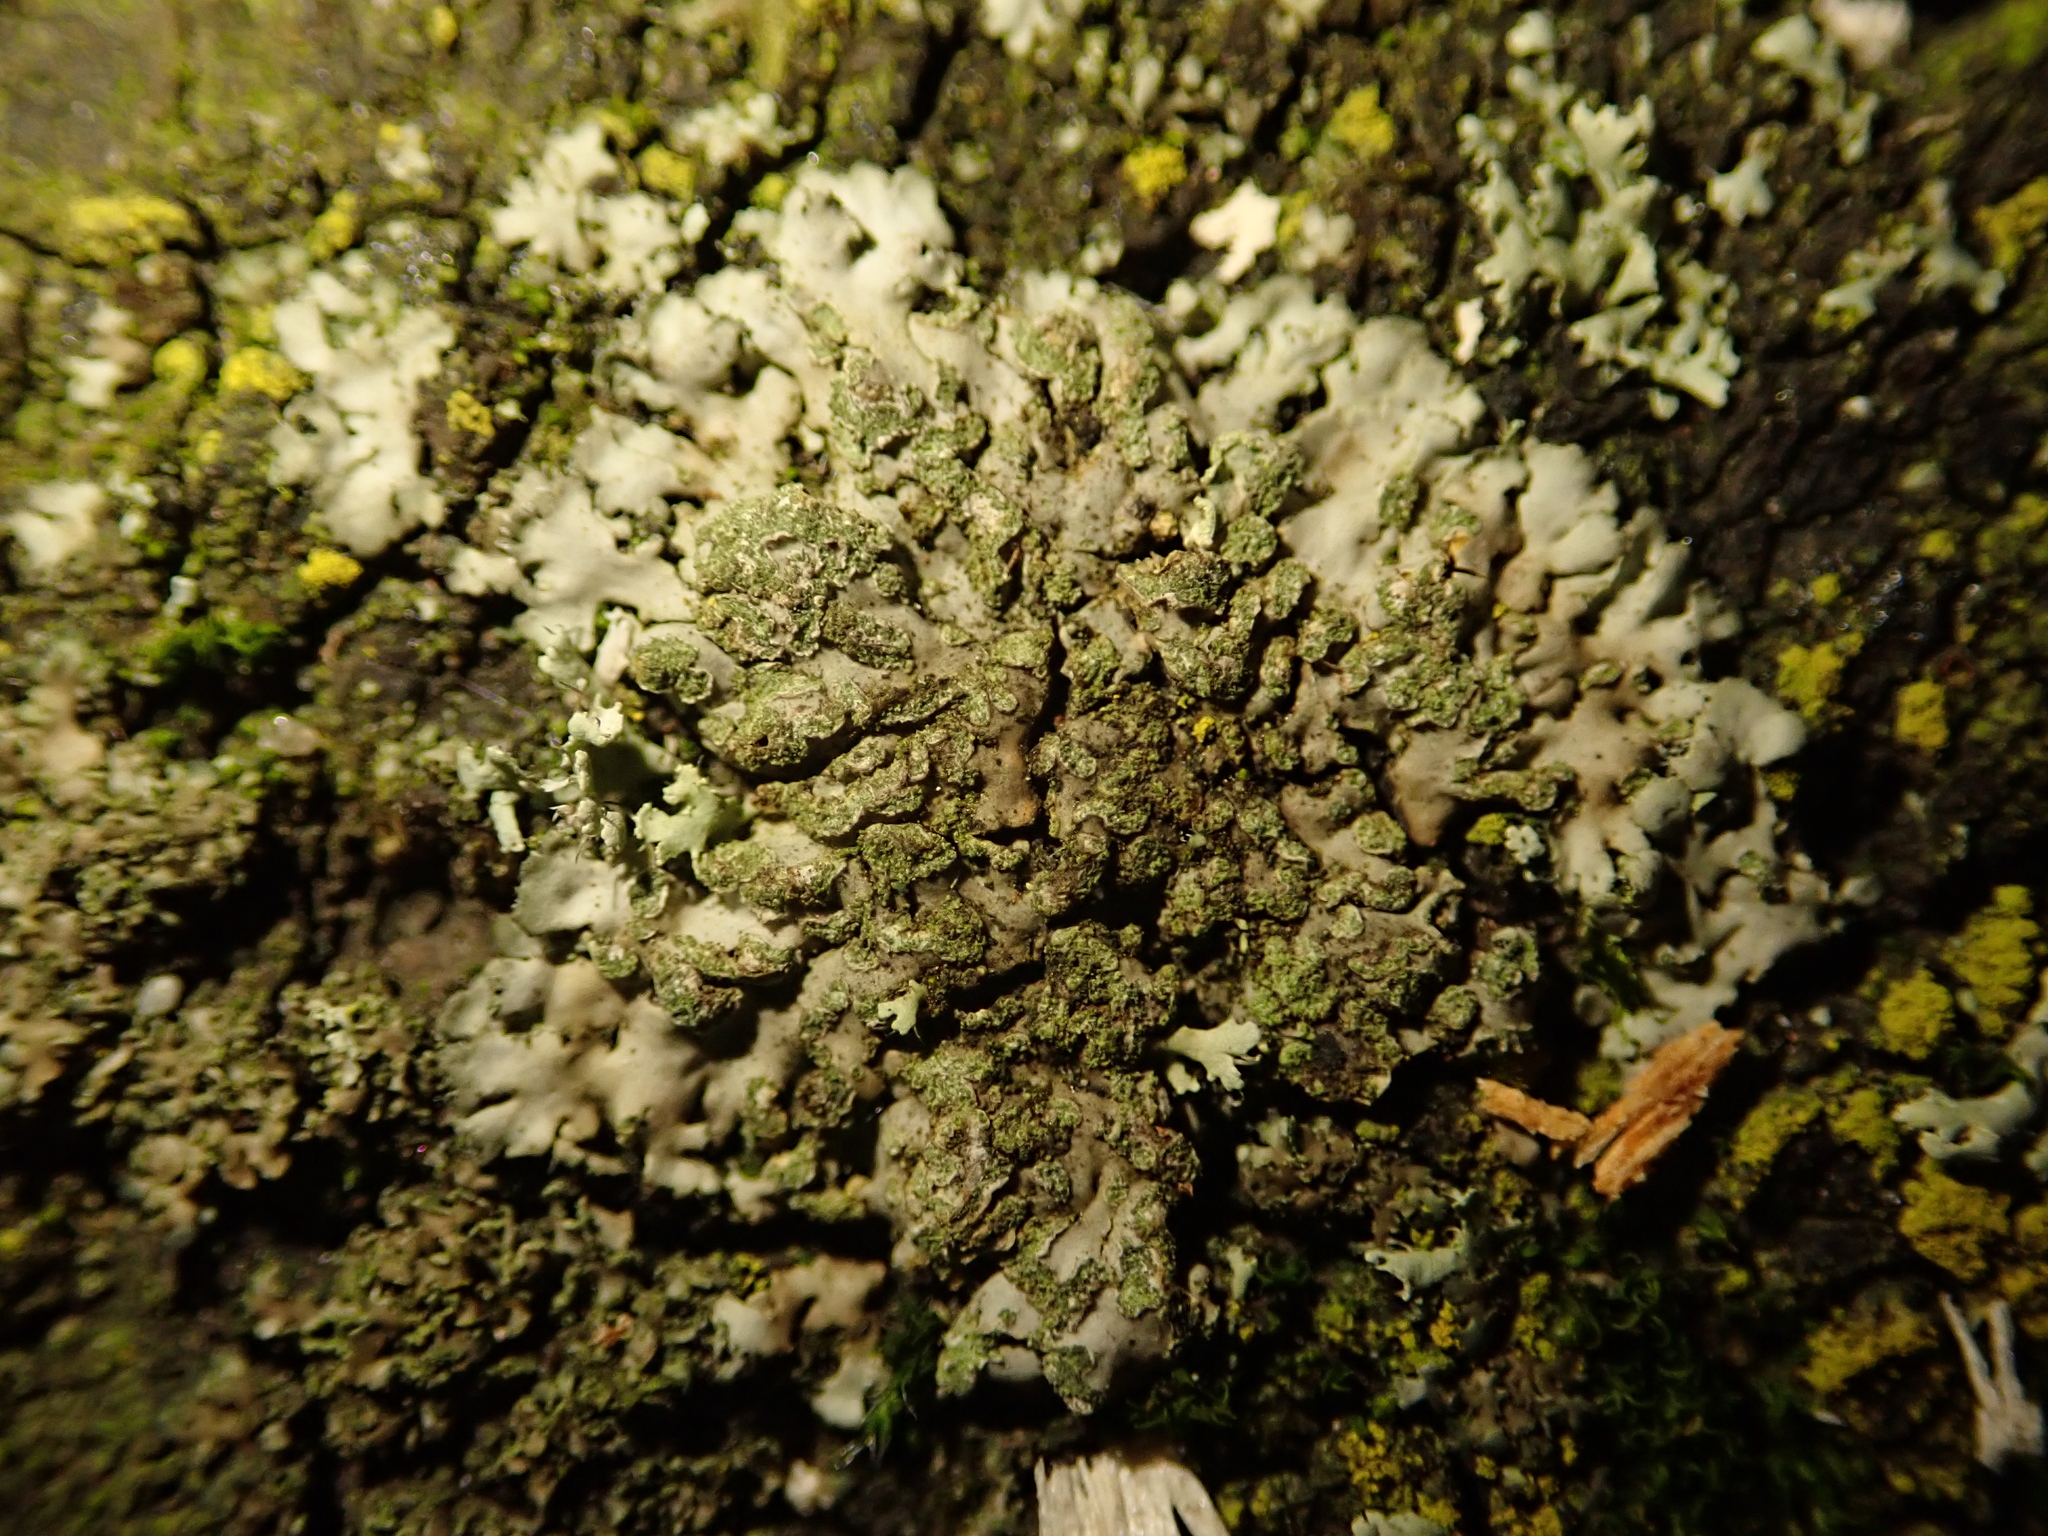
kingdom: Fungi
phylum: Ascomycota
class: Lecanoromycetes
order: Caliciales
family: Physciaceae
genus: Phaeophyscia
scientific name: Phaeophyscia orbicularis
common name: Mealy shadow lichen
